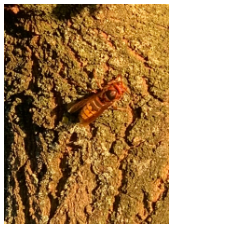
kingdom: Animalia
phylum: Arthropoda
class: Insecta
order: Hymenoptera
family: Vespidae
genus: Vespa
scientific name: Vespa crabro
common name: Hornet
